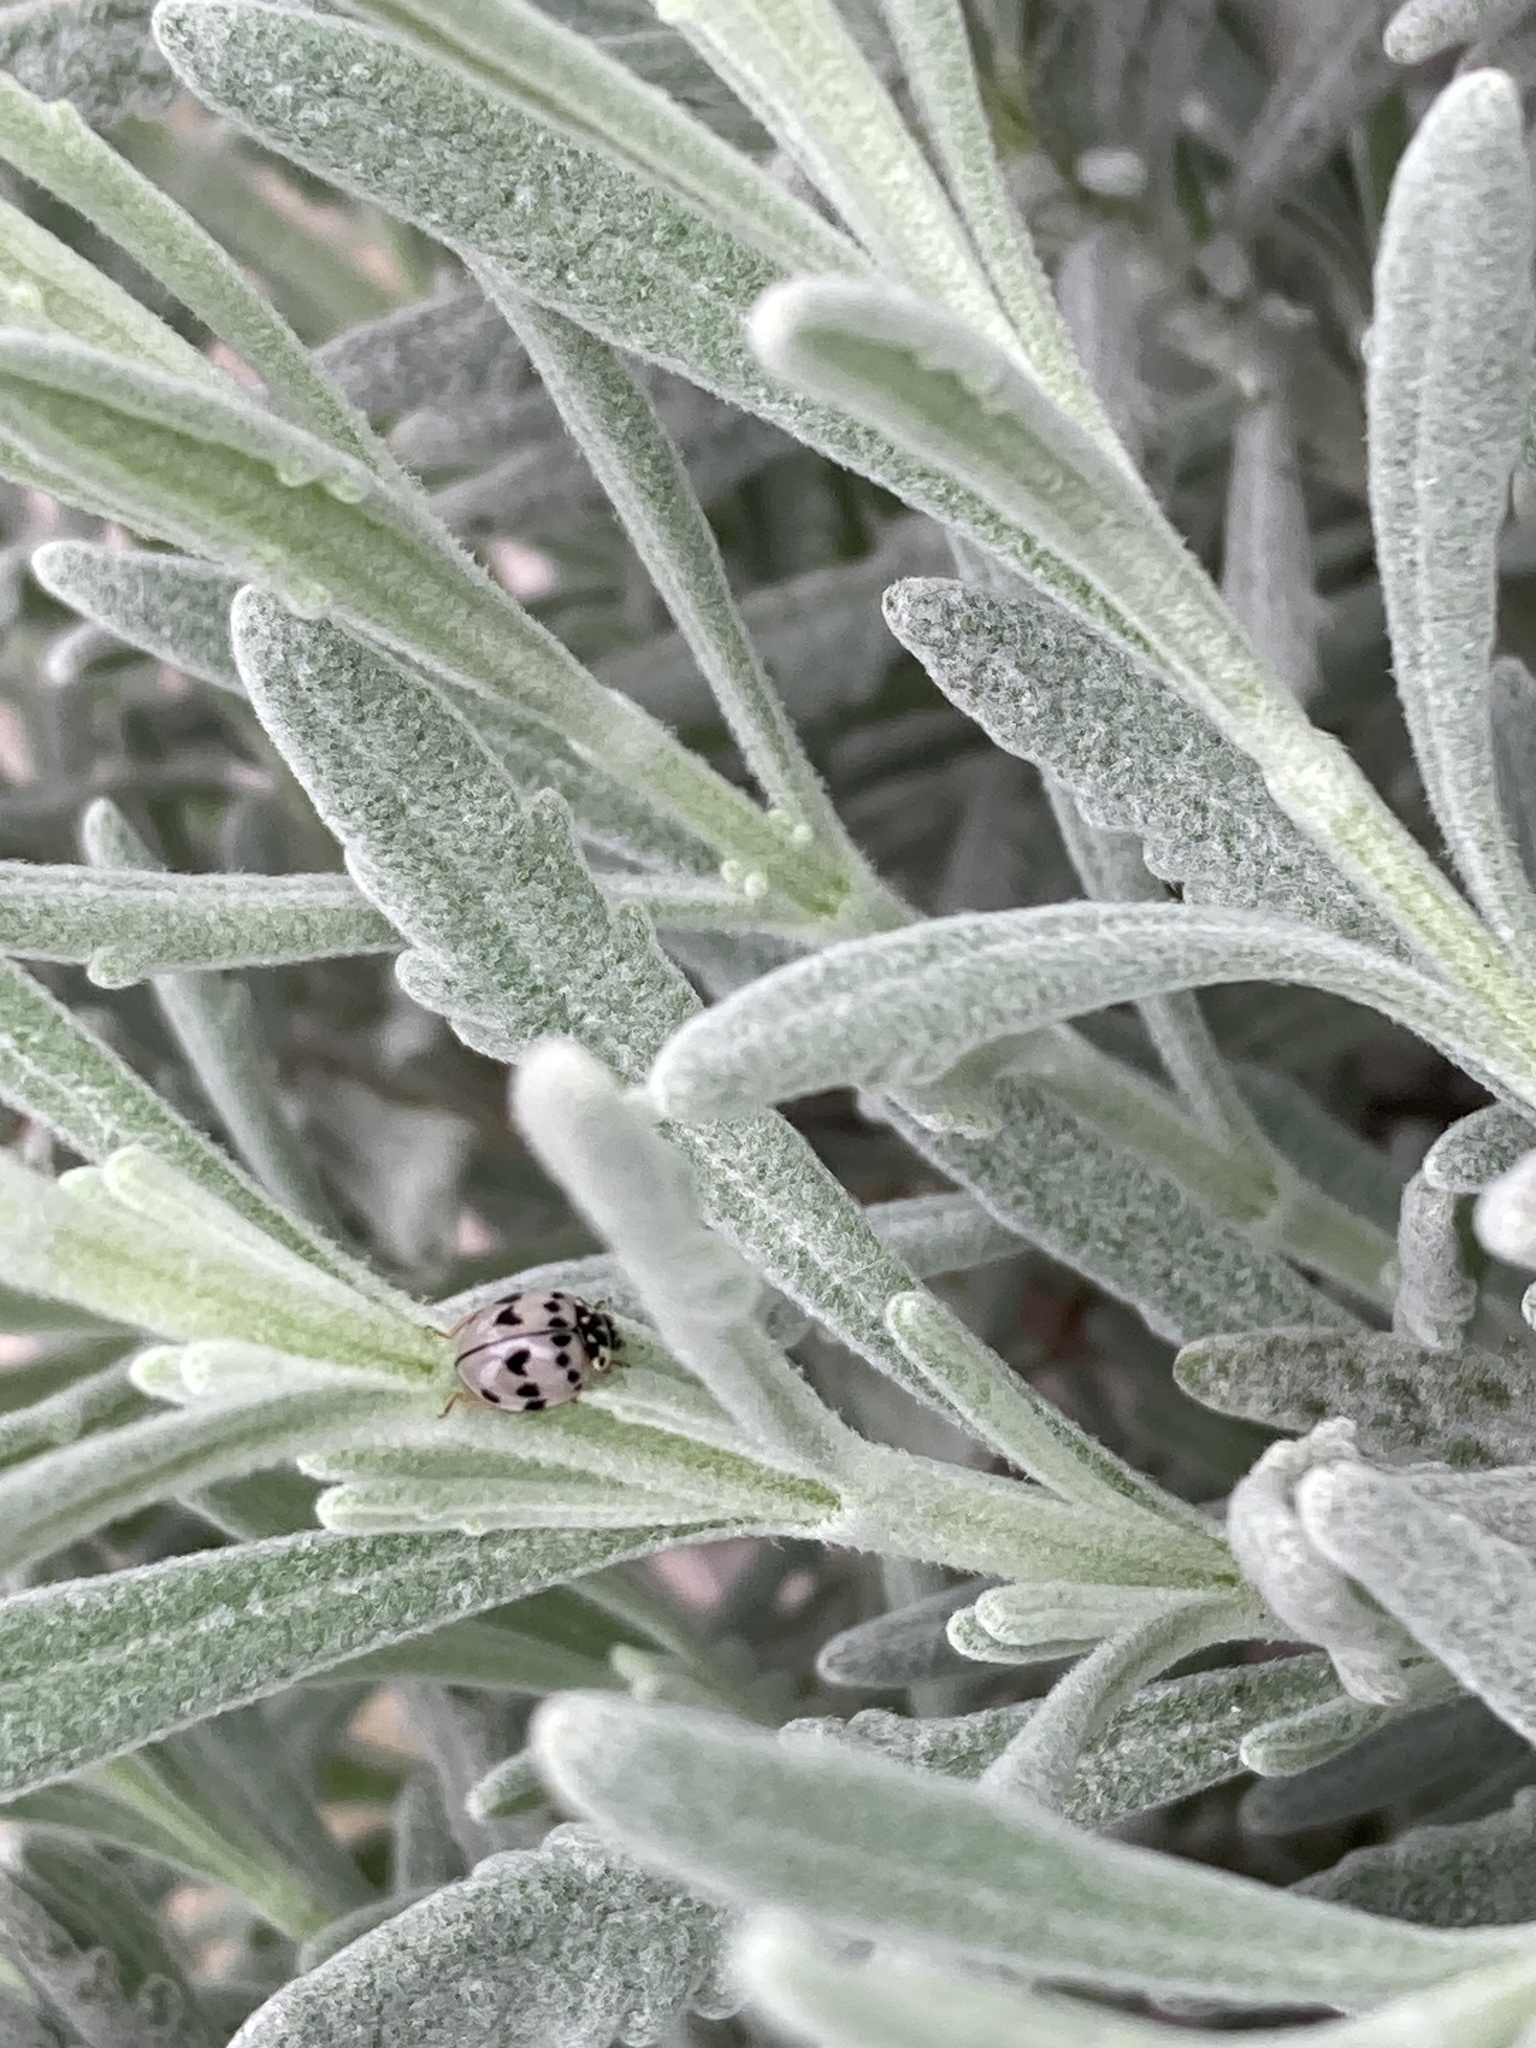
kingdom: Animalia
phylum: Arthropoda
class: Insecta
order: Coleoptera
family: Coccinellidae
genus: Olla
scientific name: Olla v-nigrum
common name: Ashy gray lady beetle
